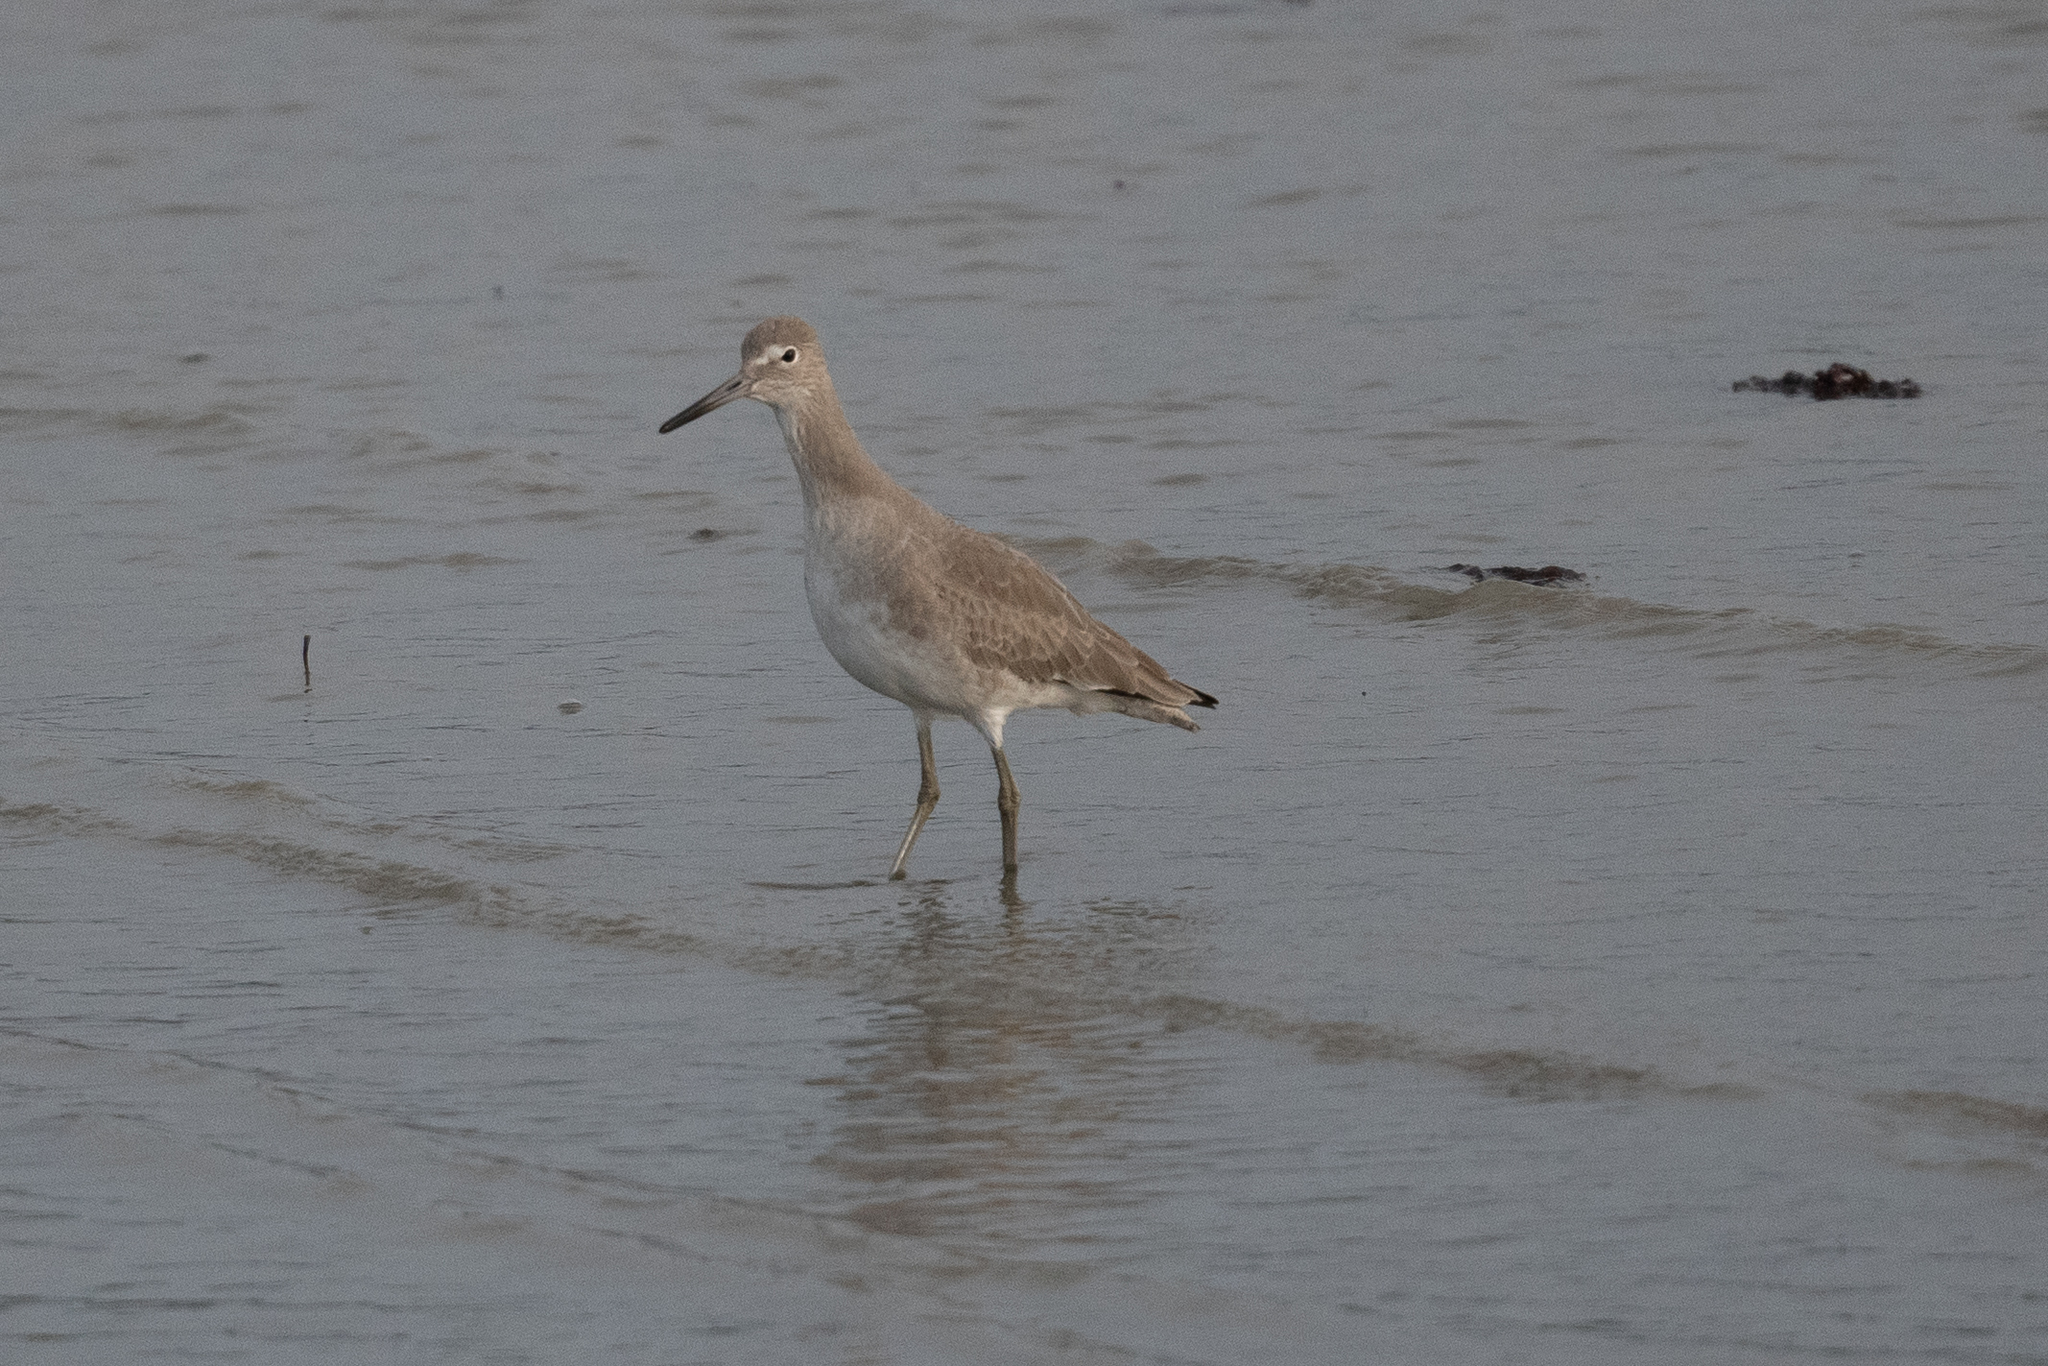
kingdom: Animalia
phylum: Chordata
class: Aves
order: Charadriiformes
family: Scolopacidae
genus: Tringa
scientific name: Tringa semipalmata
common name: Willet
